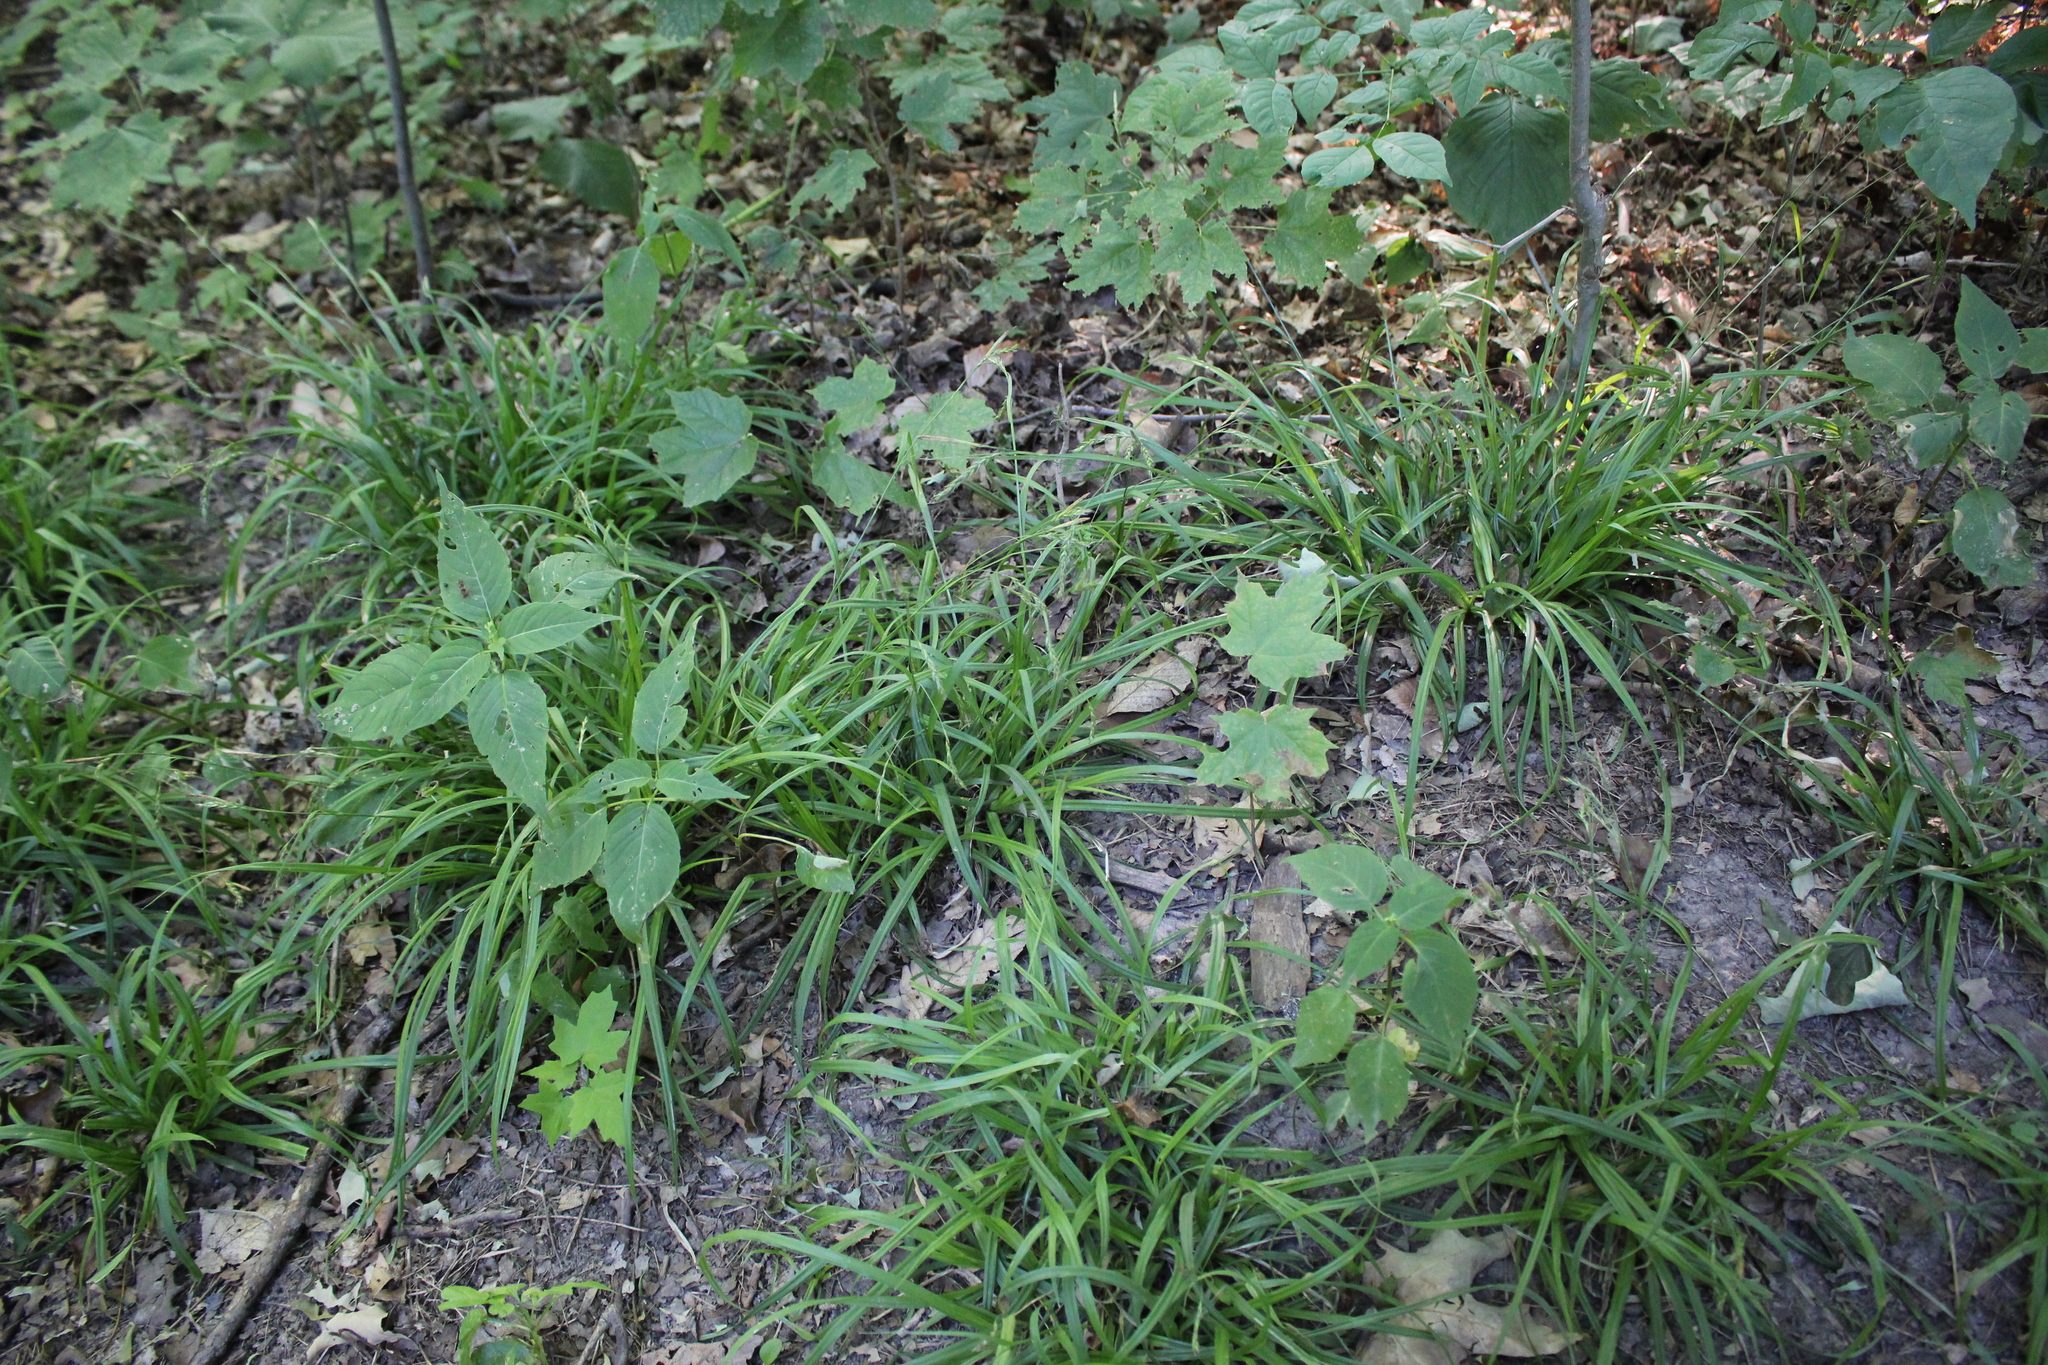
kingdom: Plantae
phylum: Tracheophyta
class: Liliopsida
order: Poales
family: Cyperaceae
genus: Carex
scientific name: Carex sylvatica
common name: Wood-sedge
